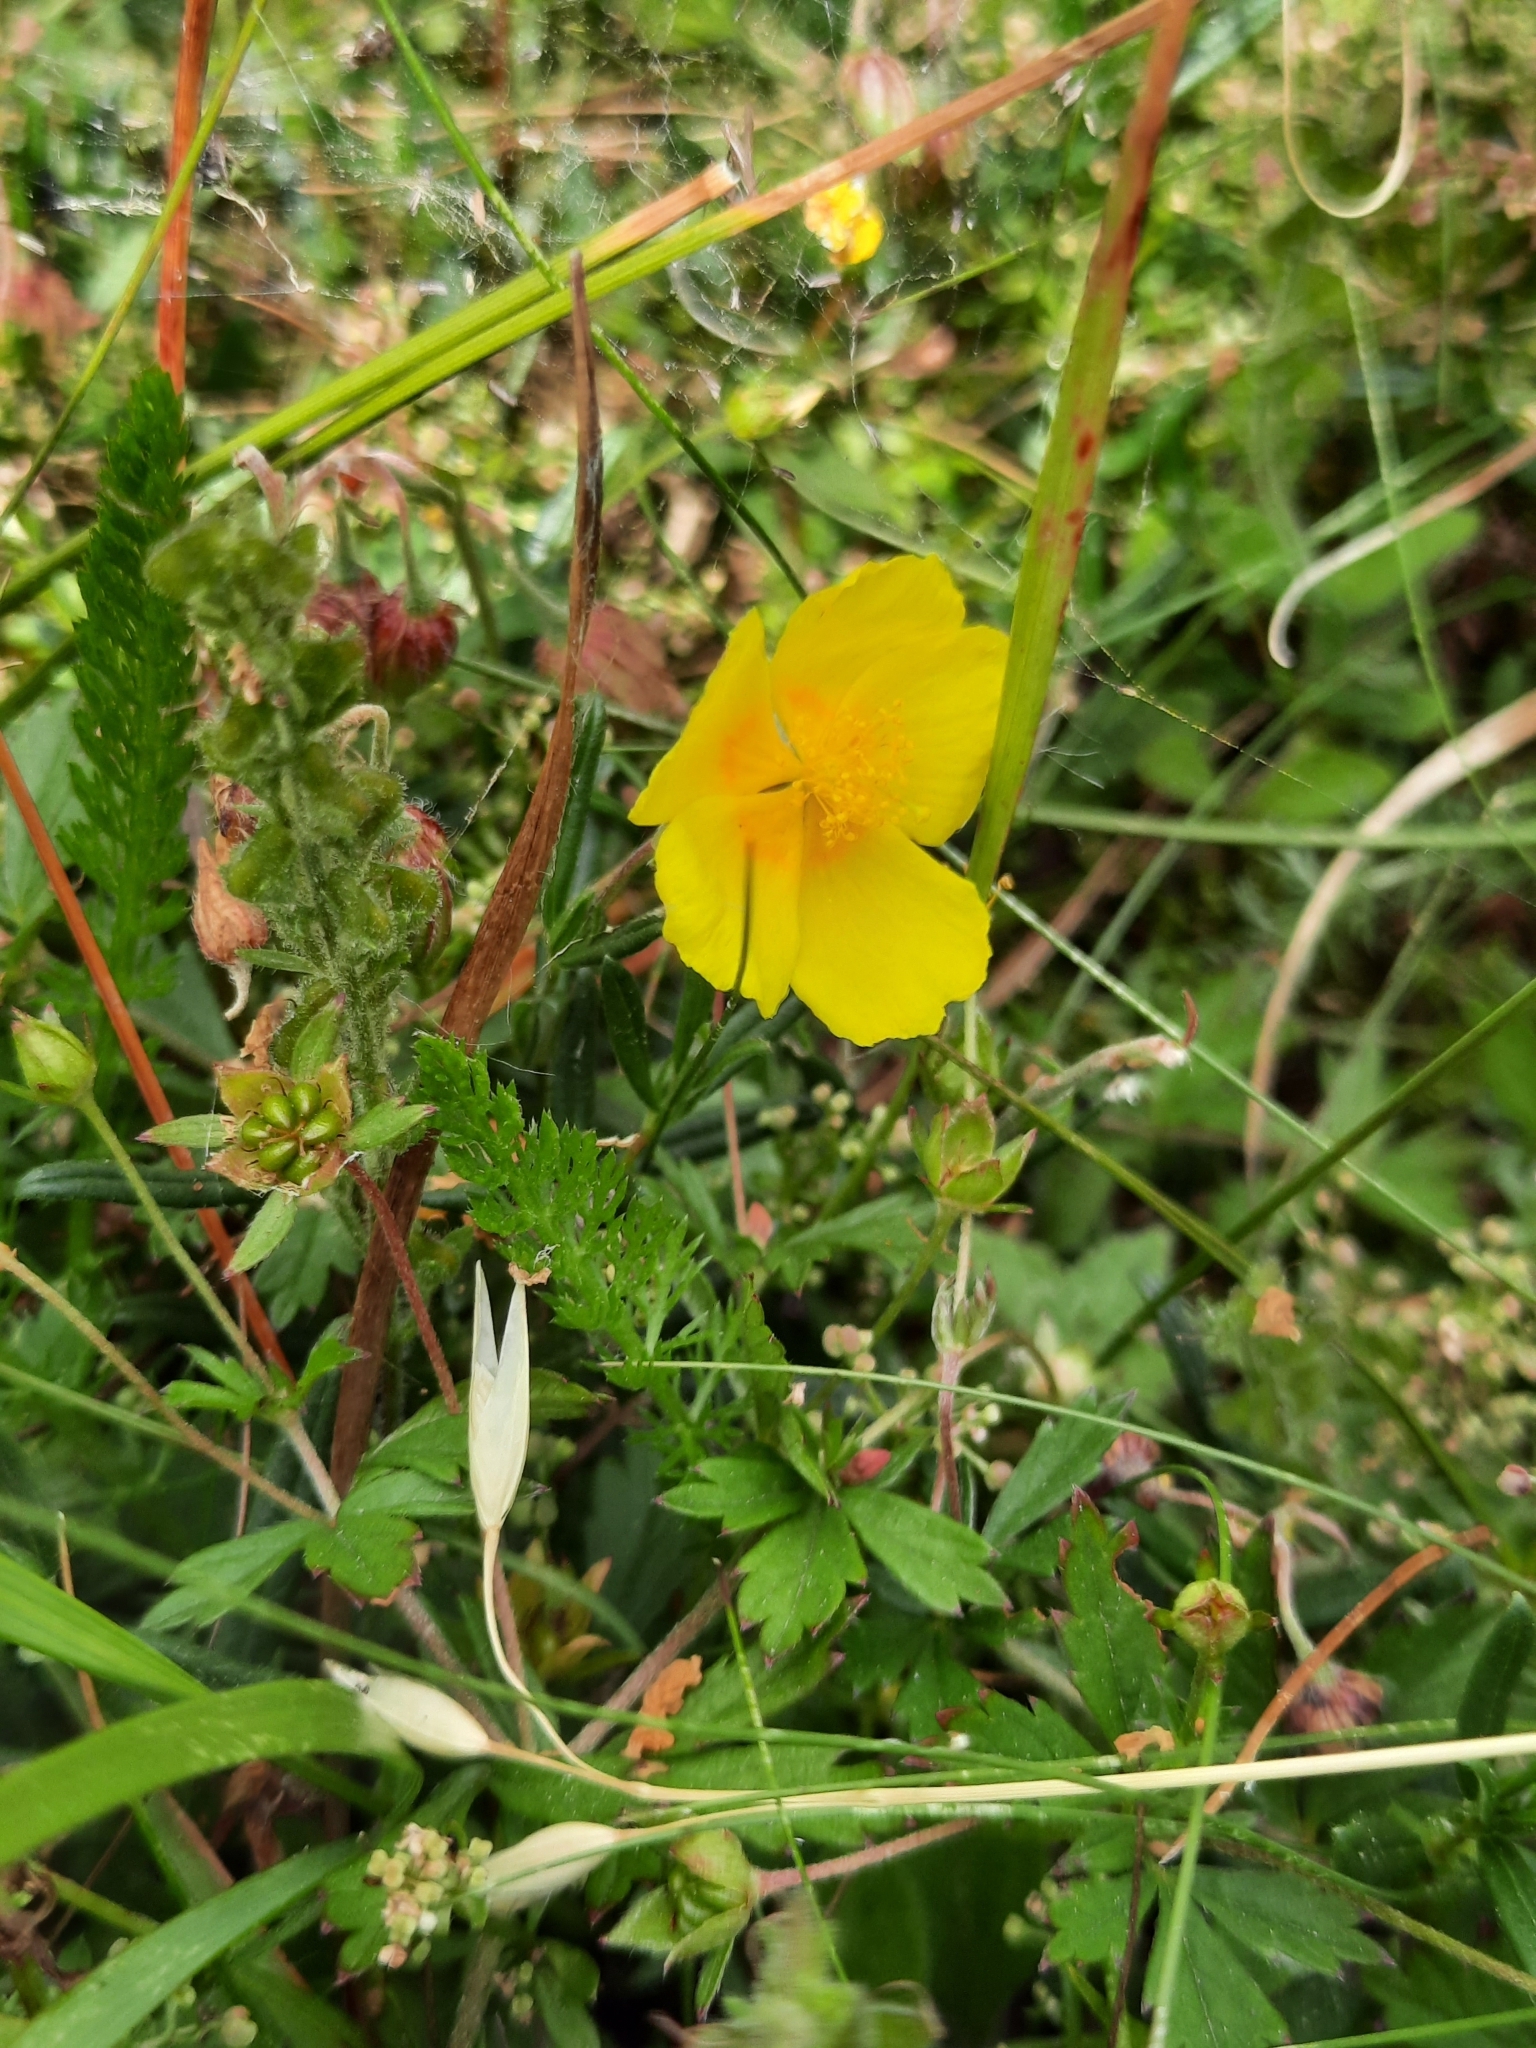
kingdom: Plantae
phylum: Tracheophyta
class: Magnoliopsida
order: Malvales
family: Cistaceae
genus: Helianthemum
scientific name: Helianthemum nummularium
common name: Common rock-rose
